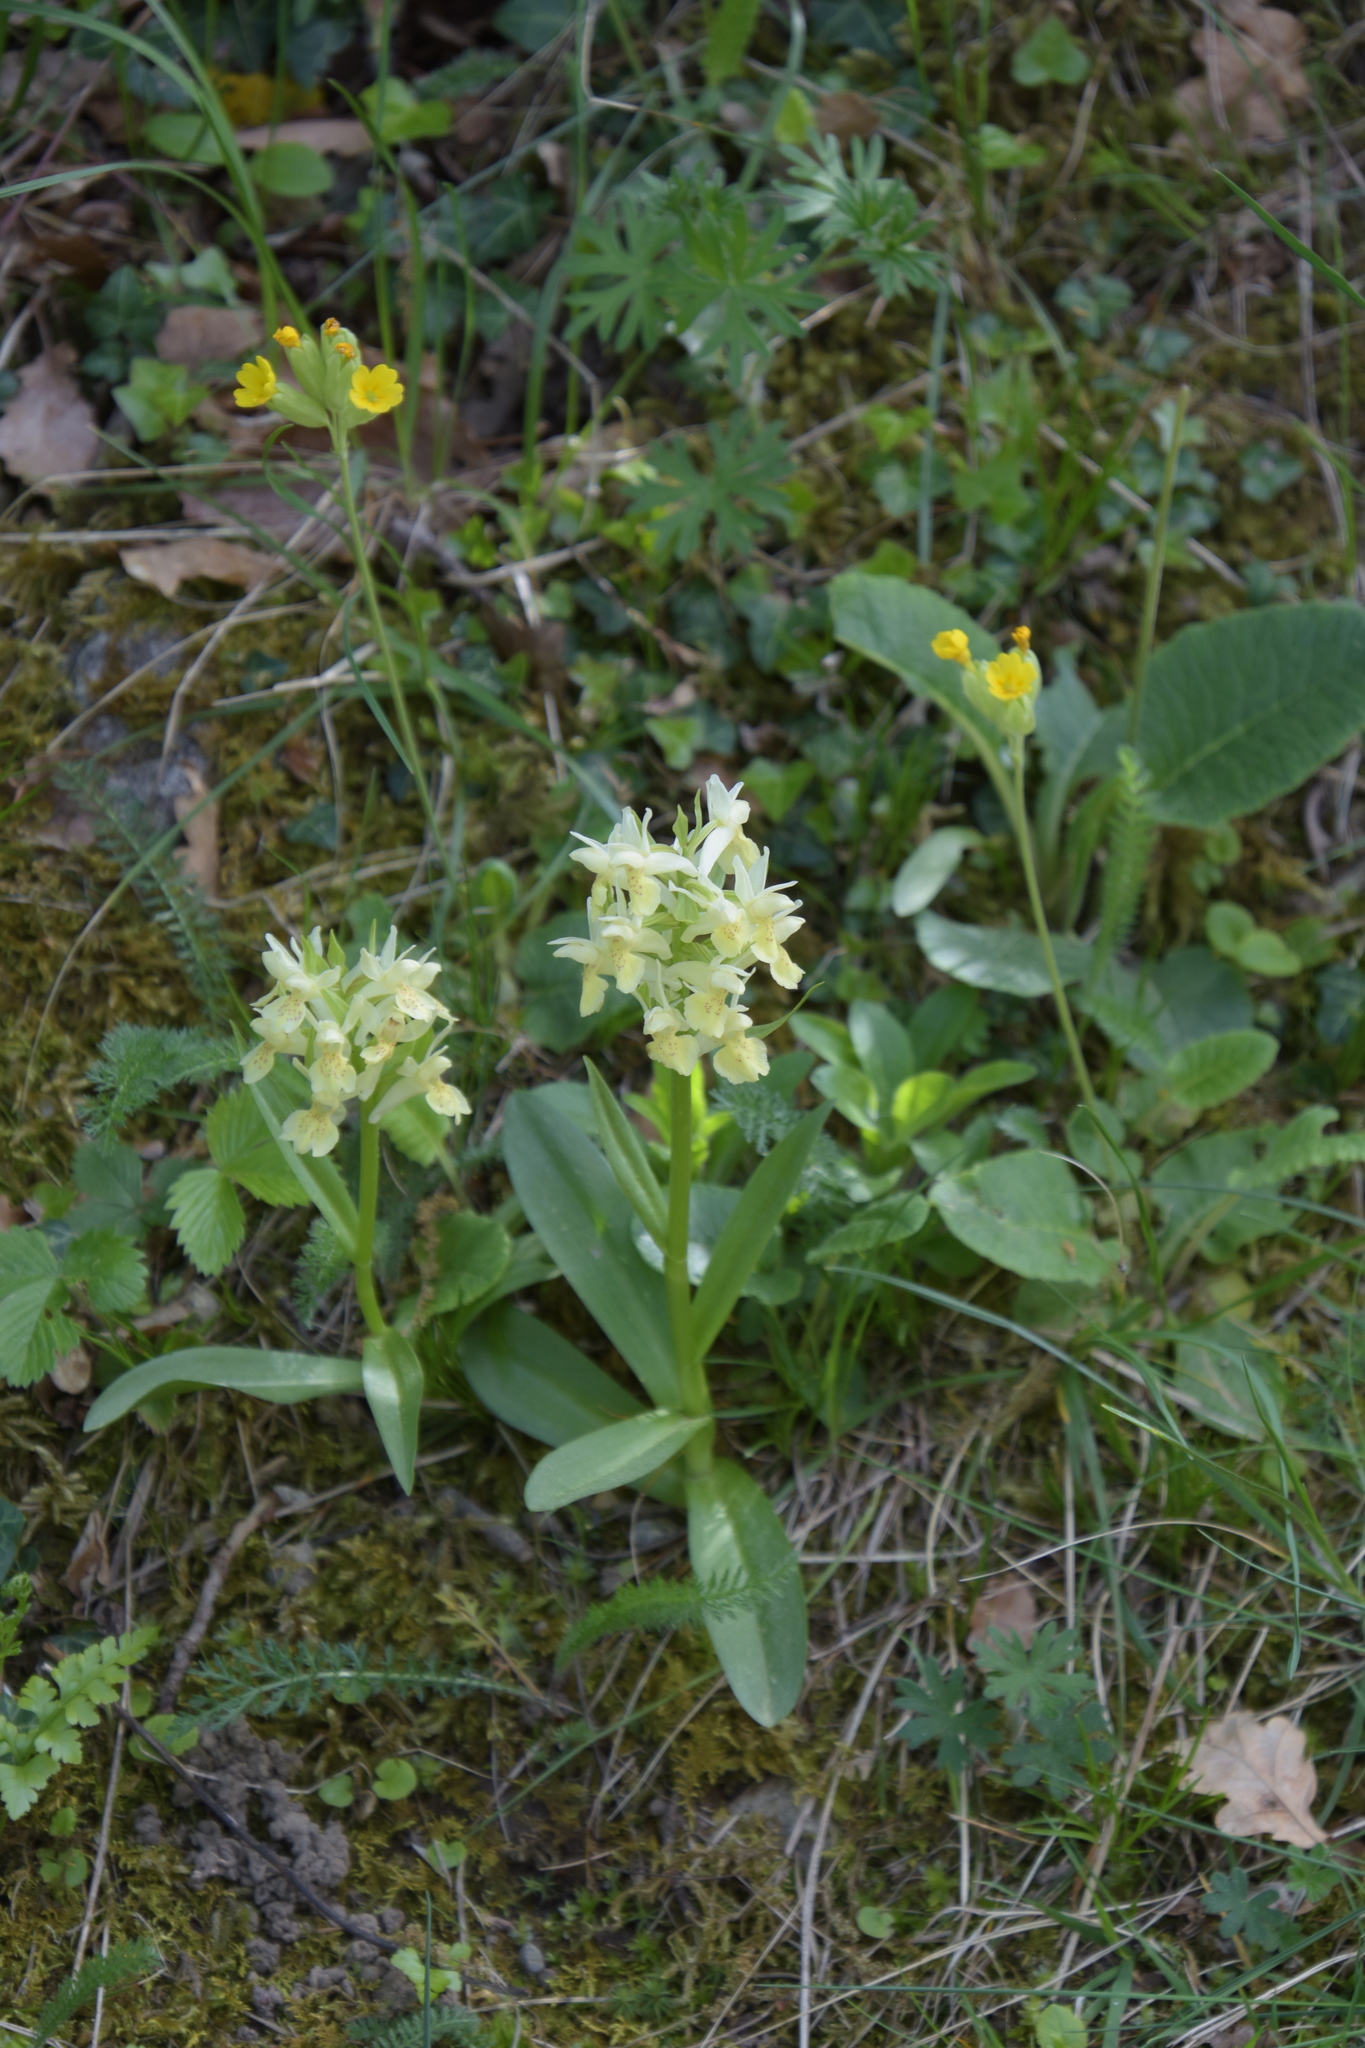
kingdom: Plantae
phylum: Tracheophyta
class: Liliopsida
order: Asparagales
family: Orchidaceae
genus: Dactylorhiza
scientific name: Dactylorhiza sambucina
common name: Elder-flowered orchid
